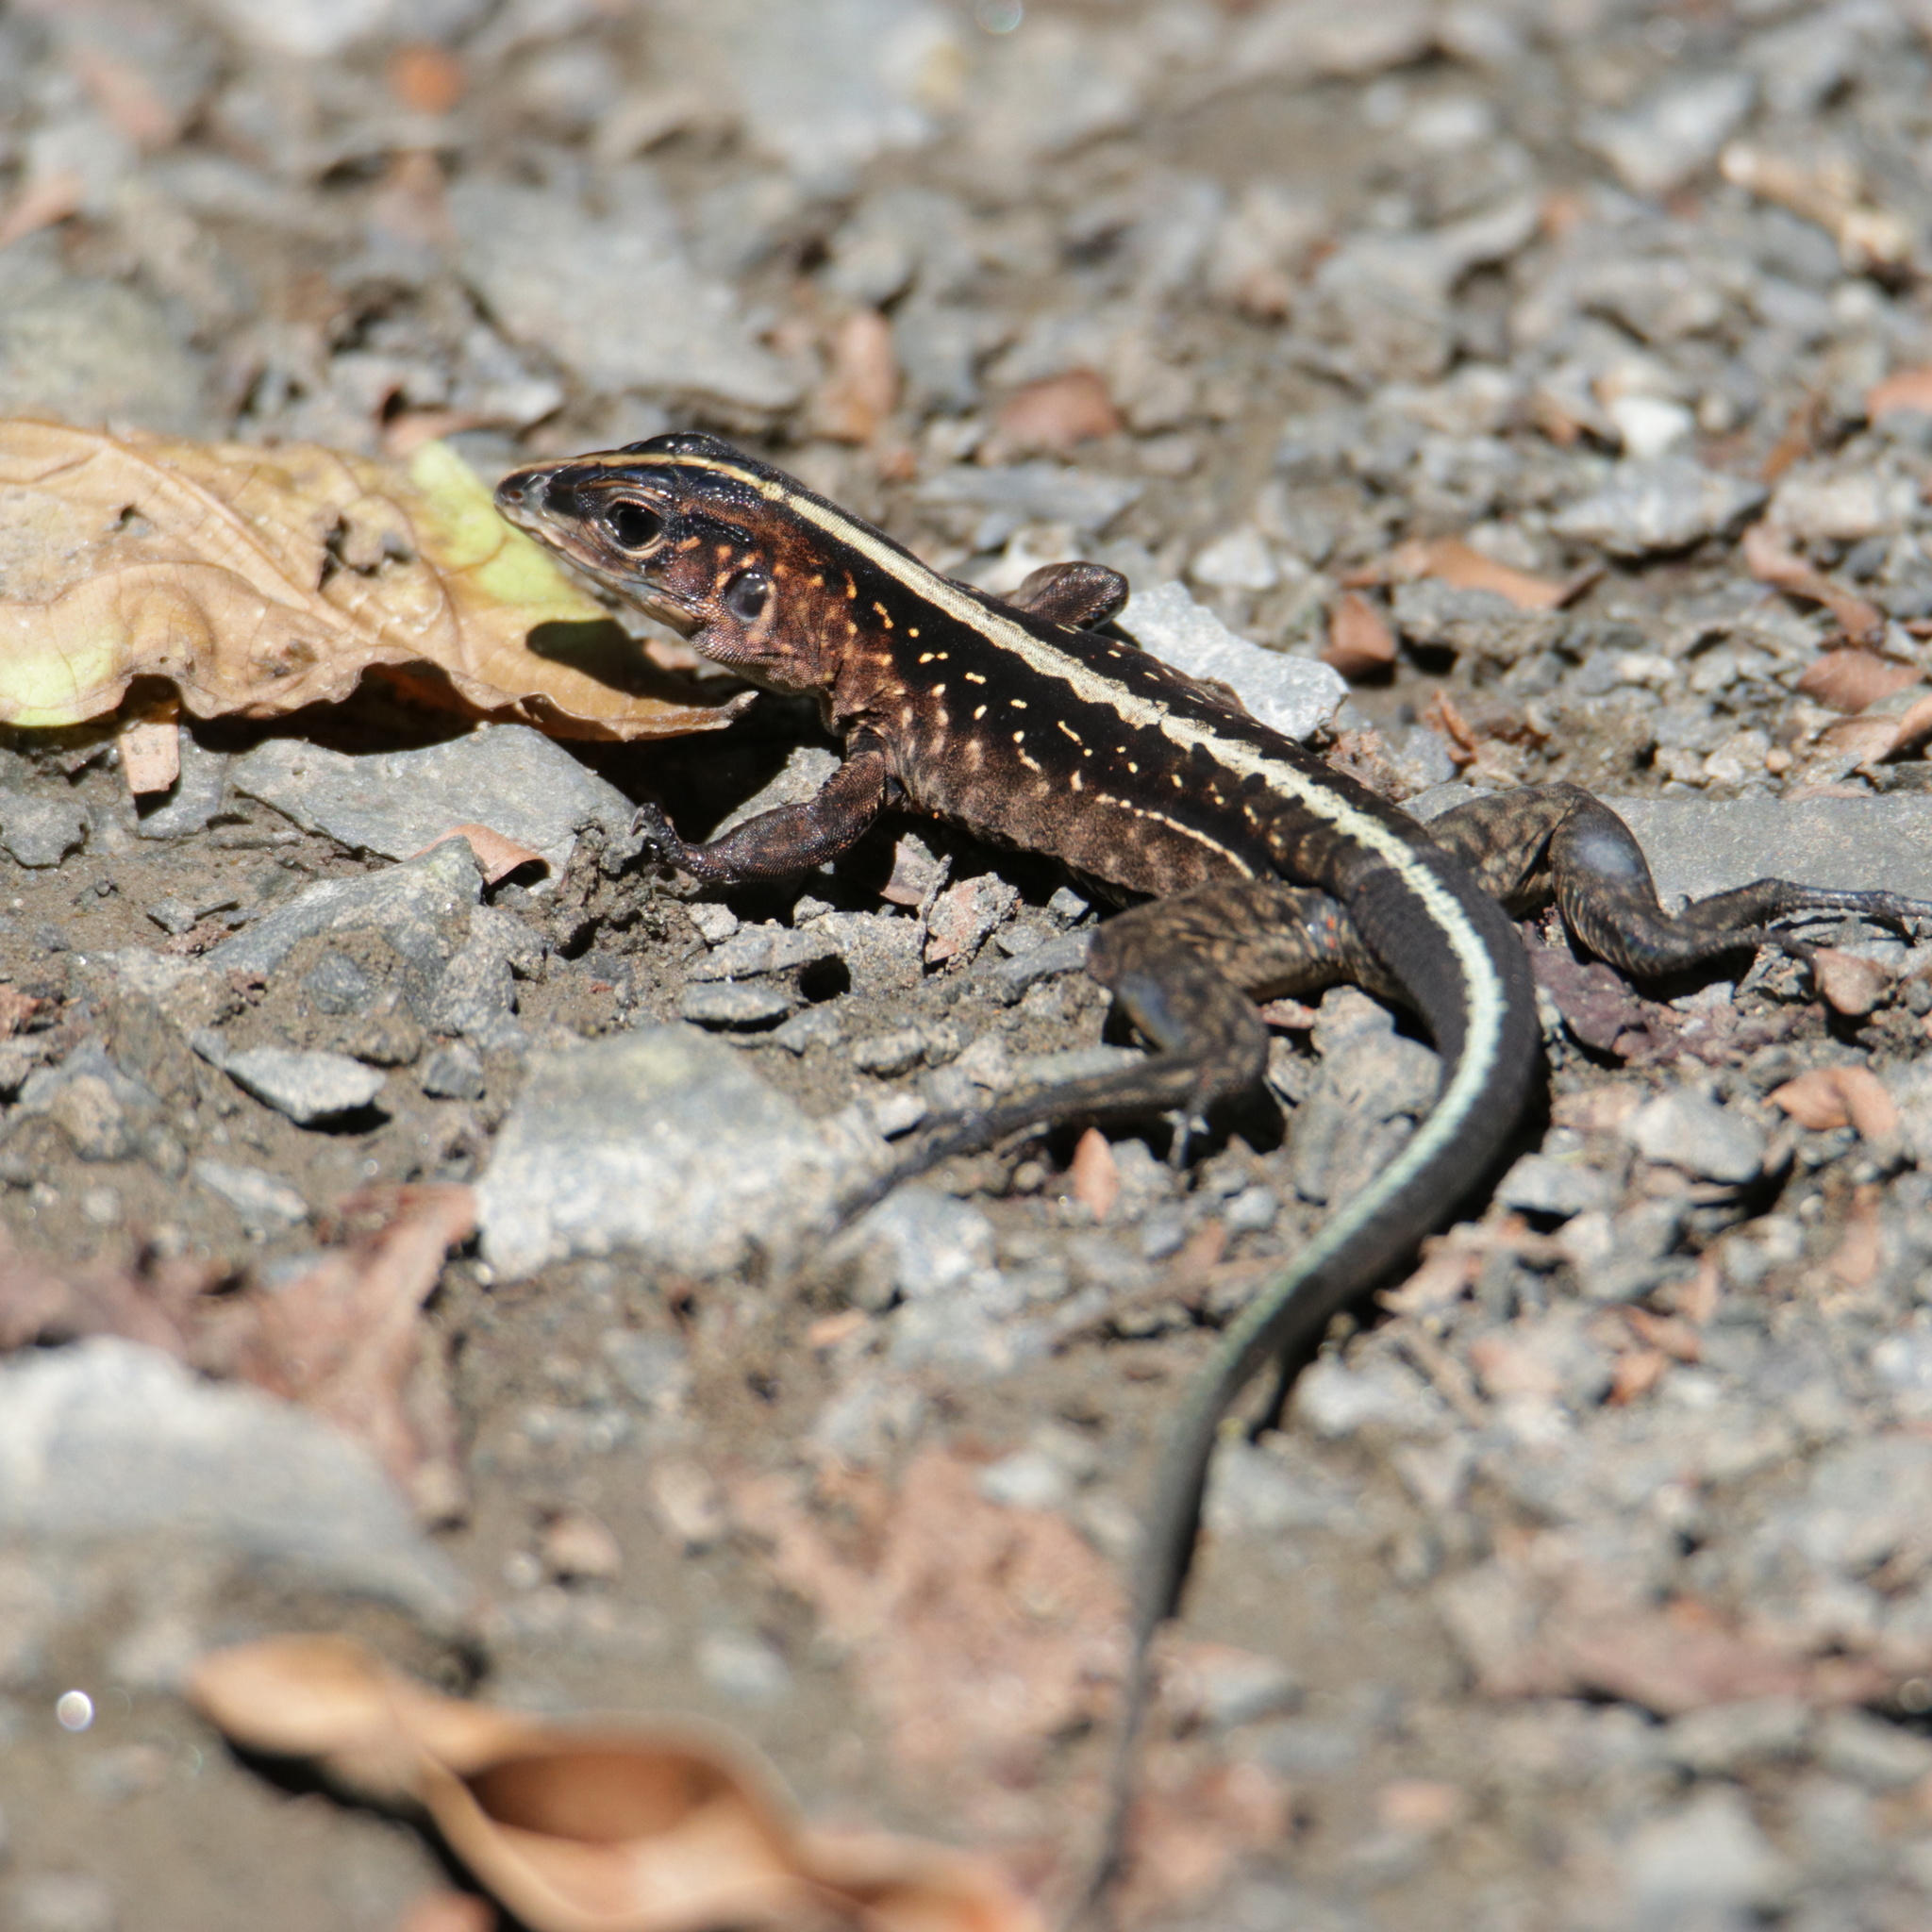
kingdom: Animalia
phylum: Chordata
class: Squamata
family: Teiidae
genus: Holcosus
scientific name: Holcosus festivus
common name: Middle american ameiva
